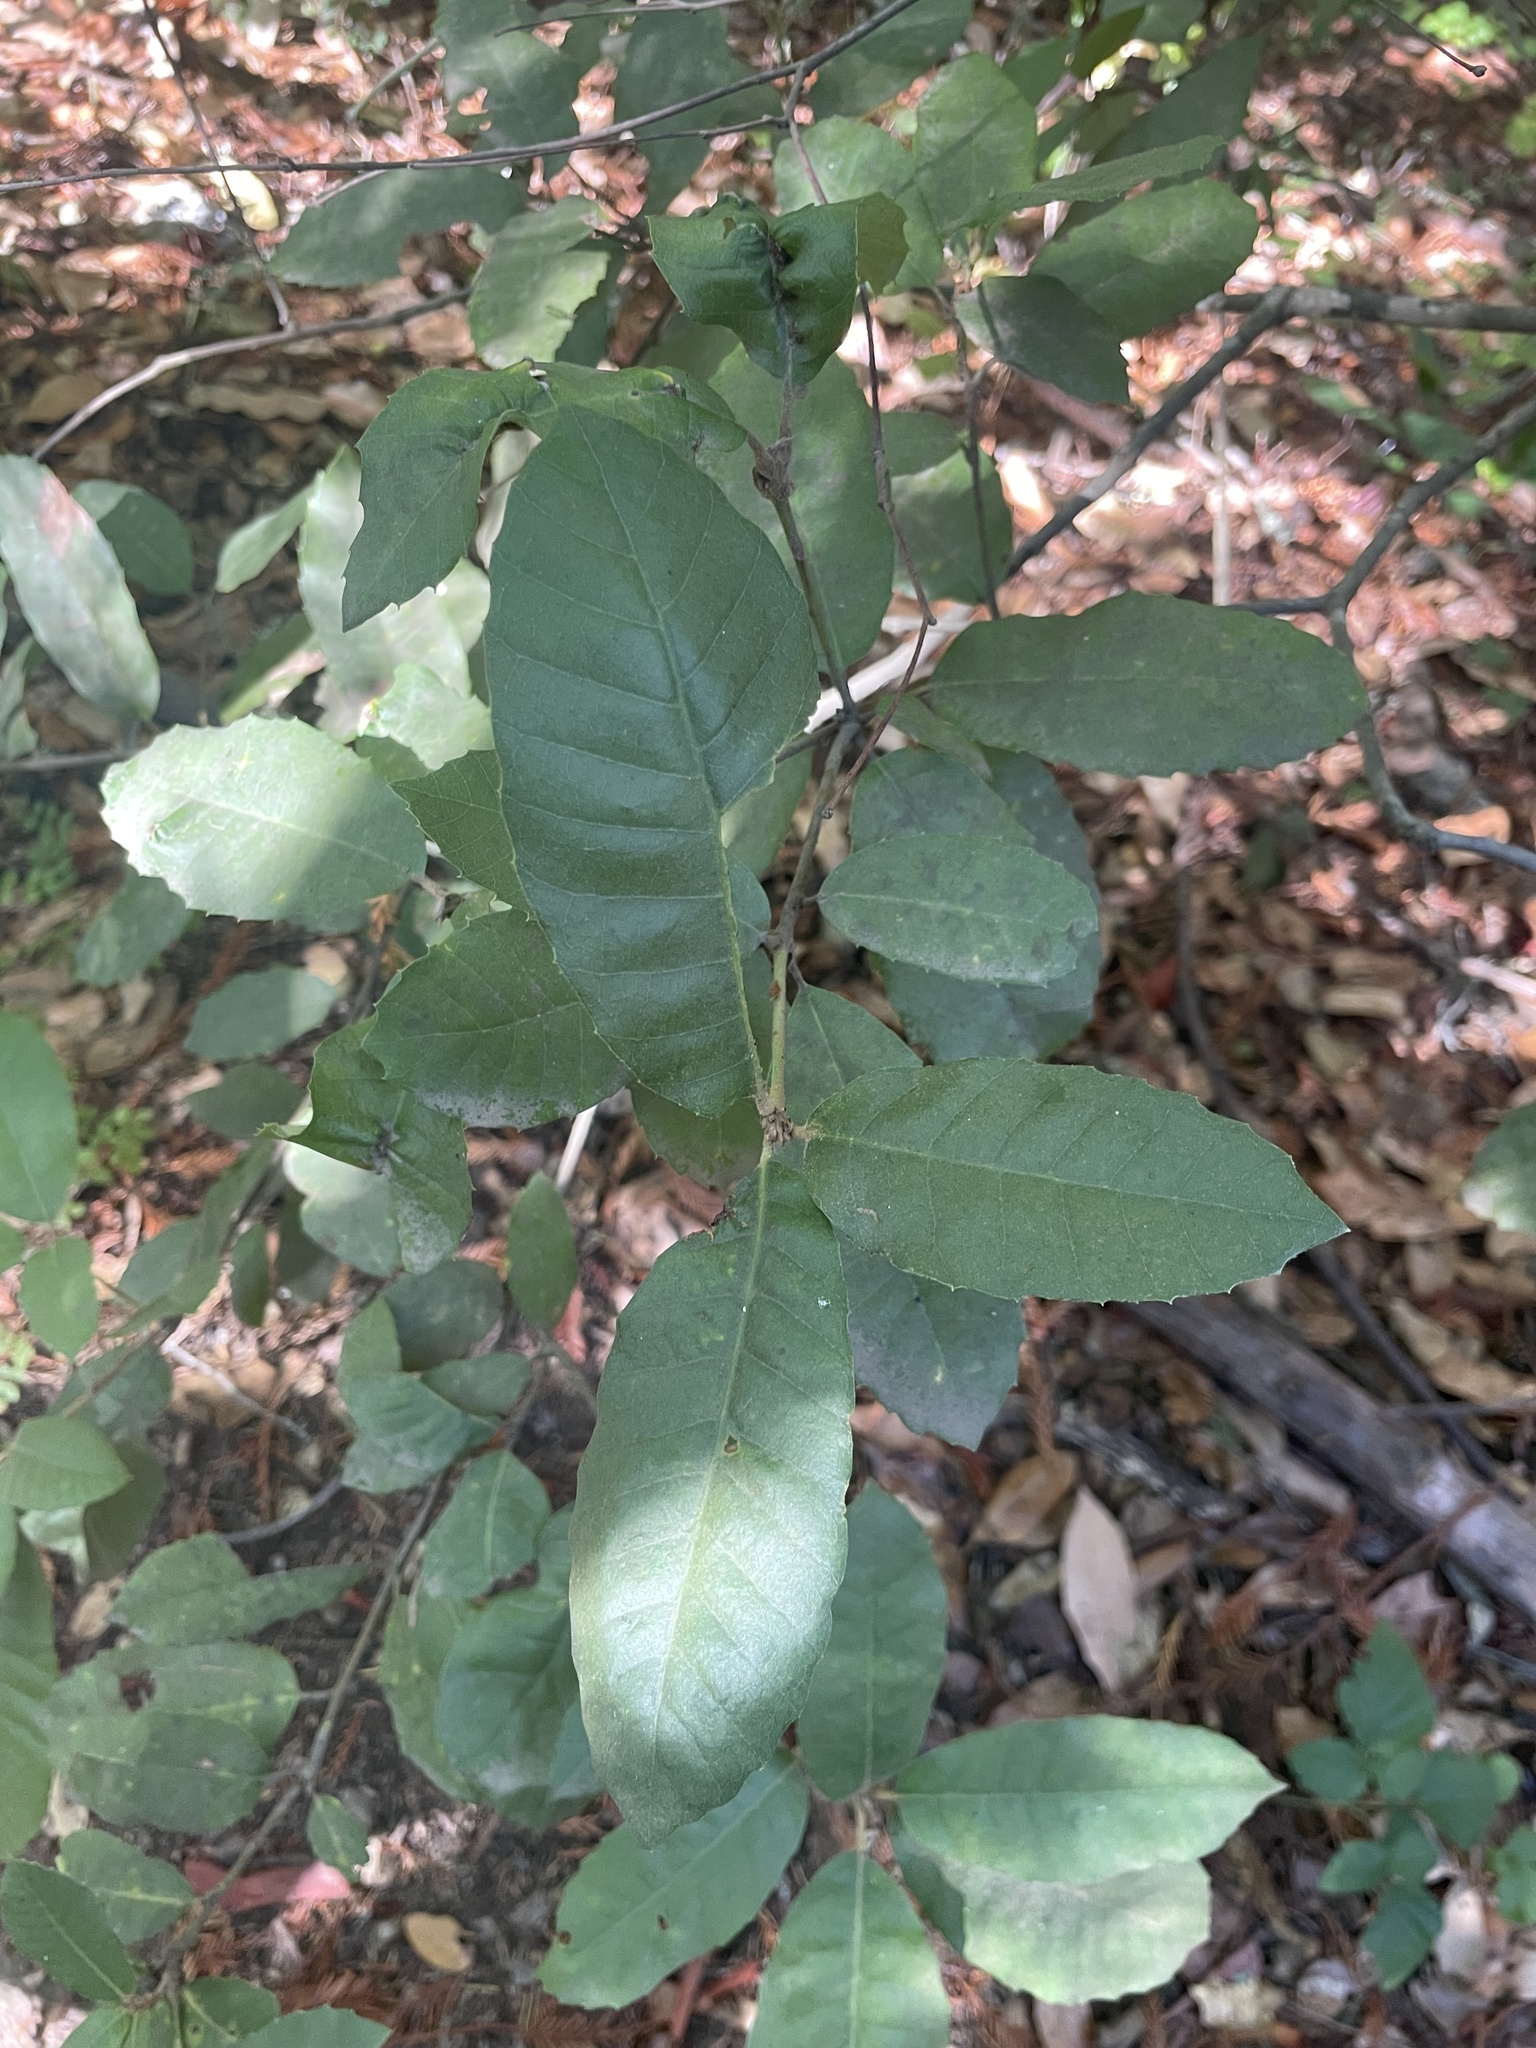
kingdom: Plantae
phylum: Tracheophyta
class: Magnoliopsida
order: Fagales
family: Fagaceae
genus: Notholithocarpus
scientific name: Notholithocarpus densiflorus
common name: Tan bark oak
